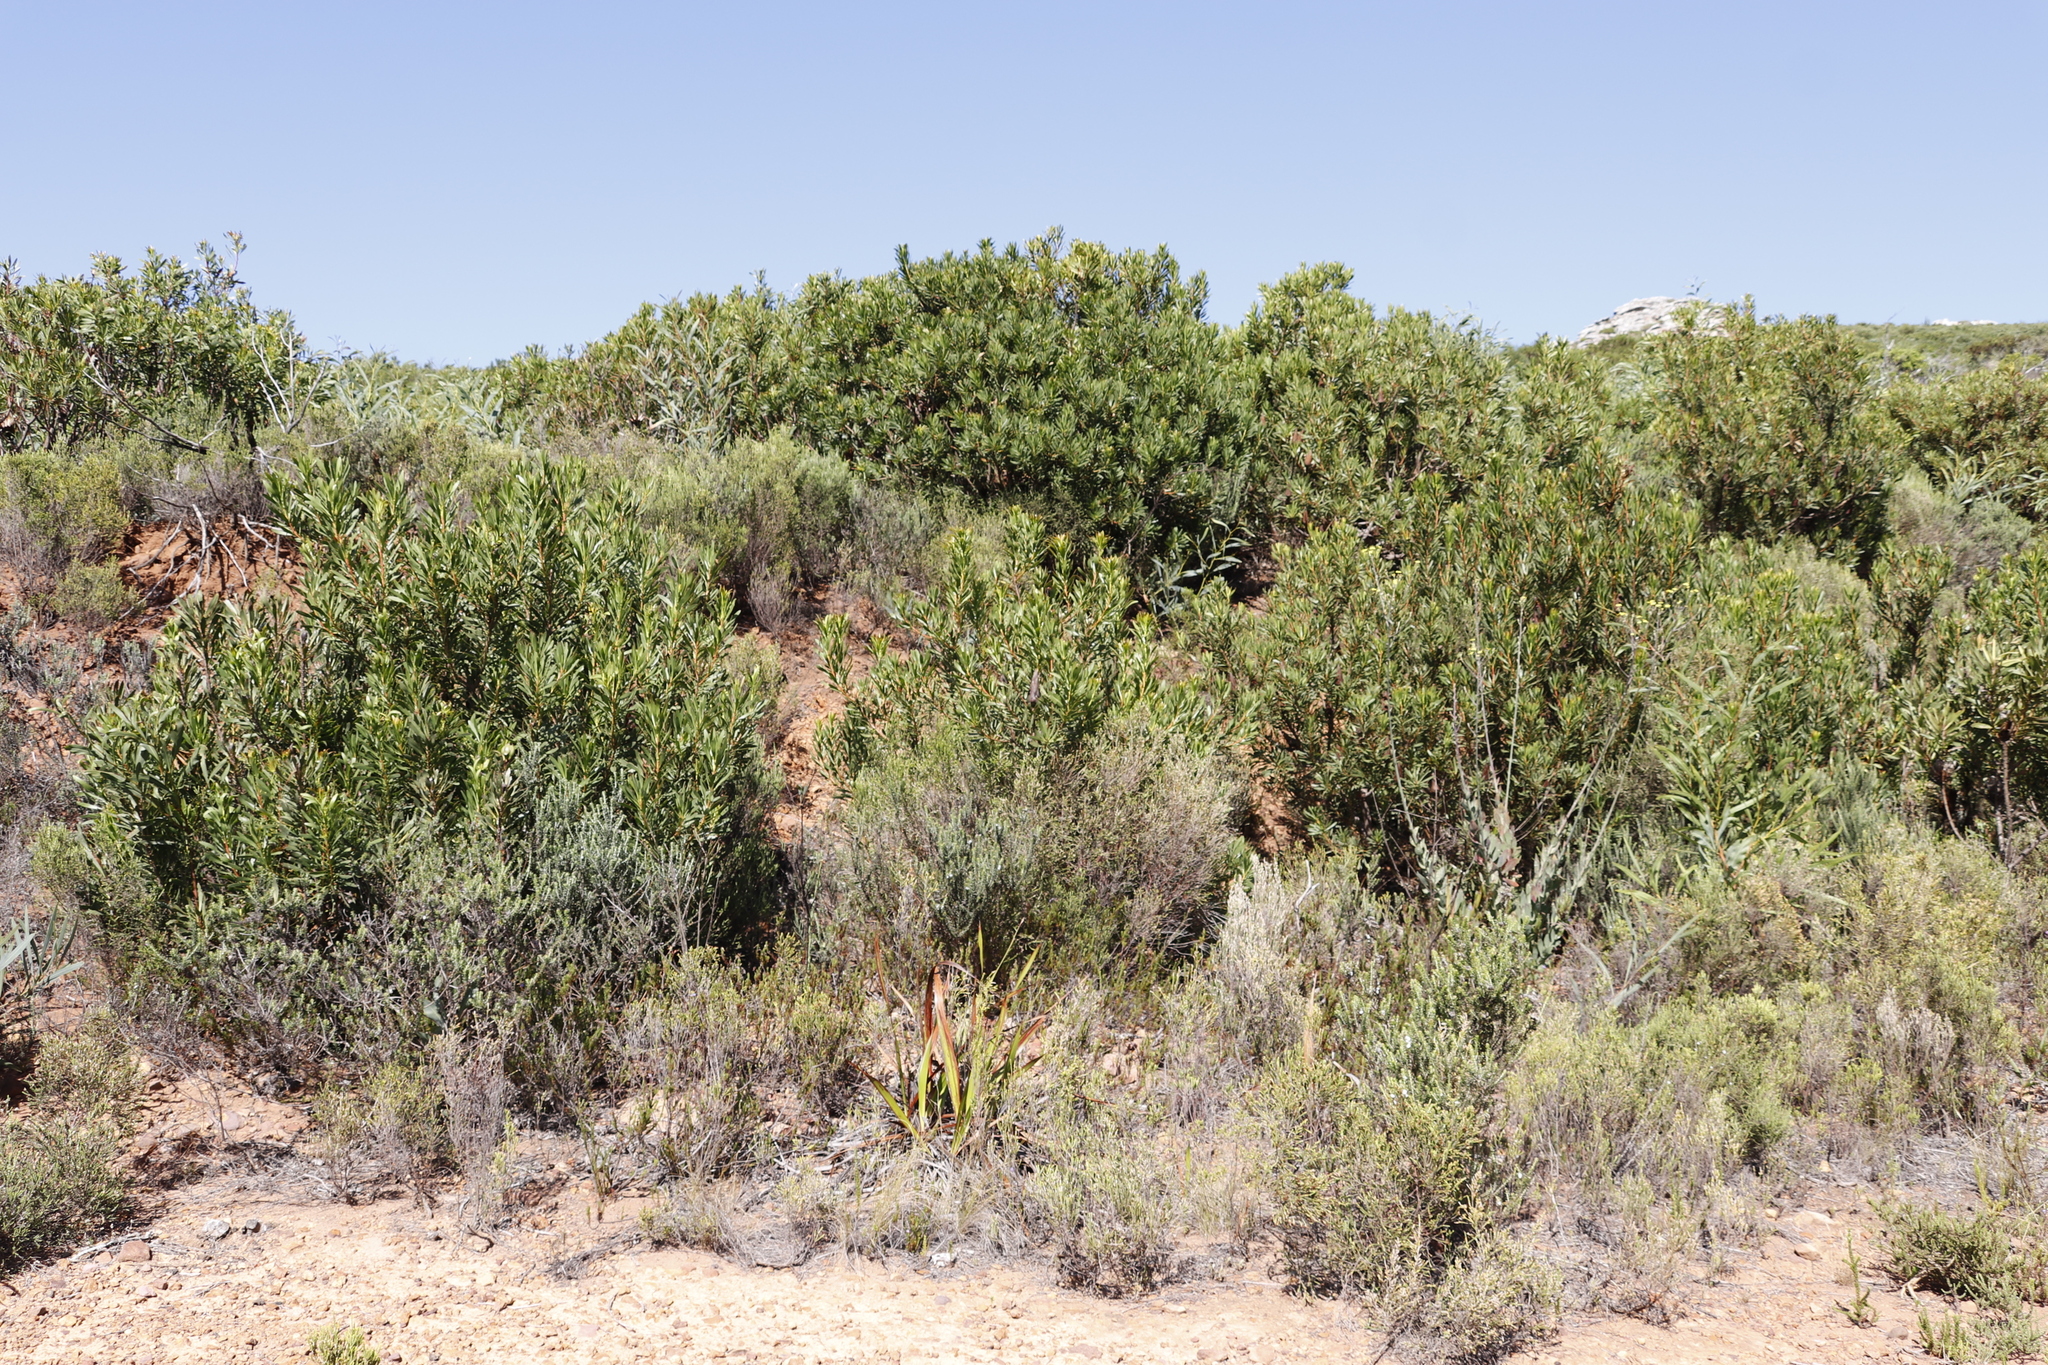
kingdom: Plantae
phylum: Tracheophyta
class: Magnoliopsida
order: Proteales
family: Proteaceae
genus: Protea
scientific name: Protea repens
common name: Sugarbush
